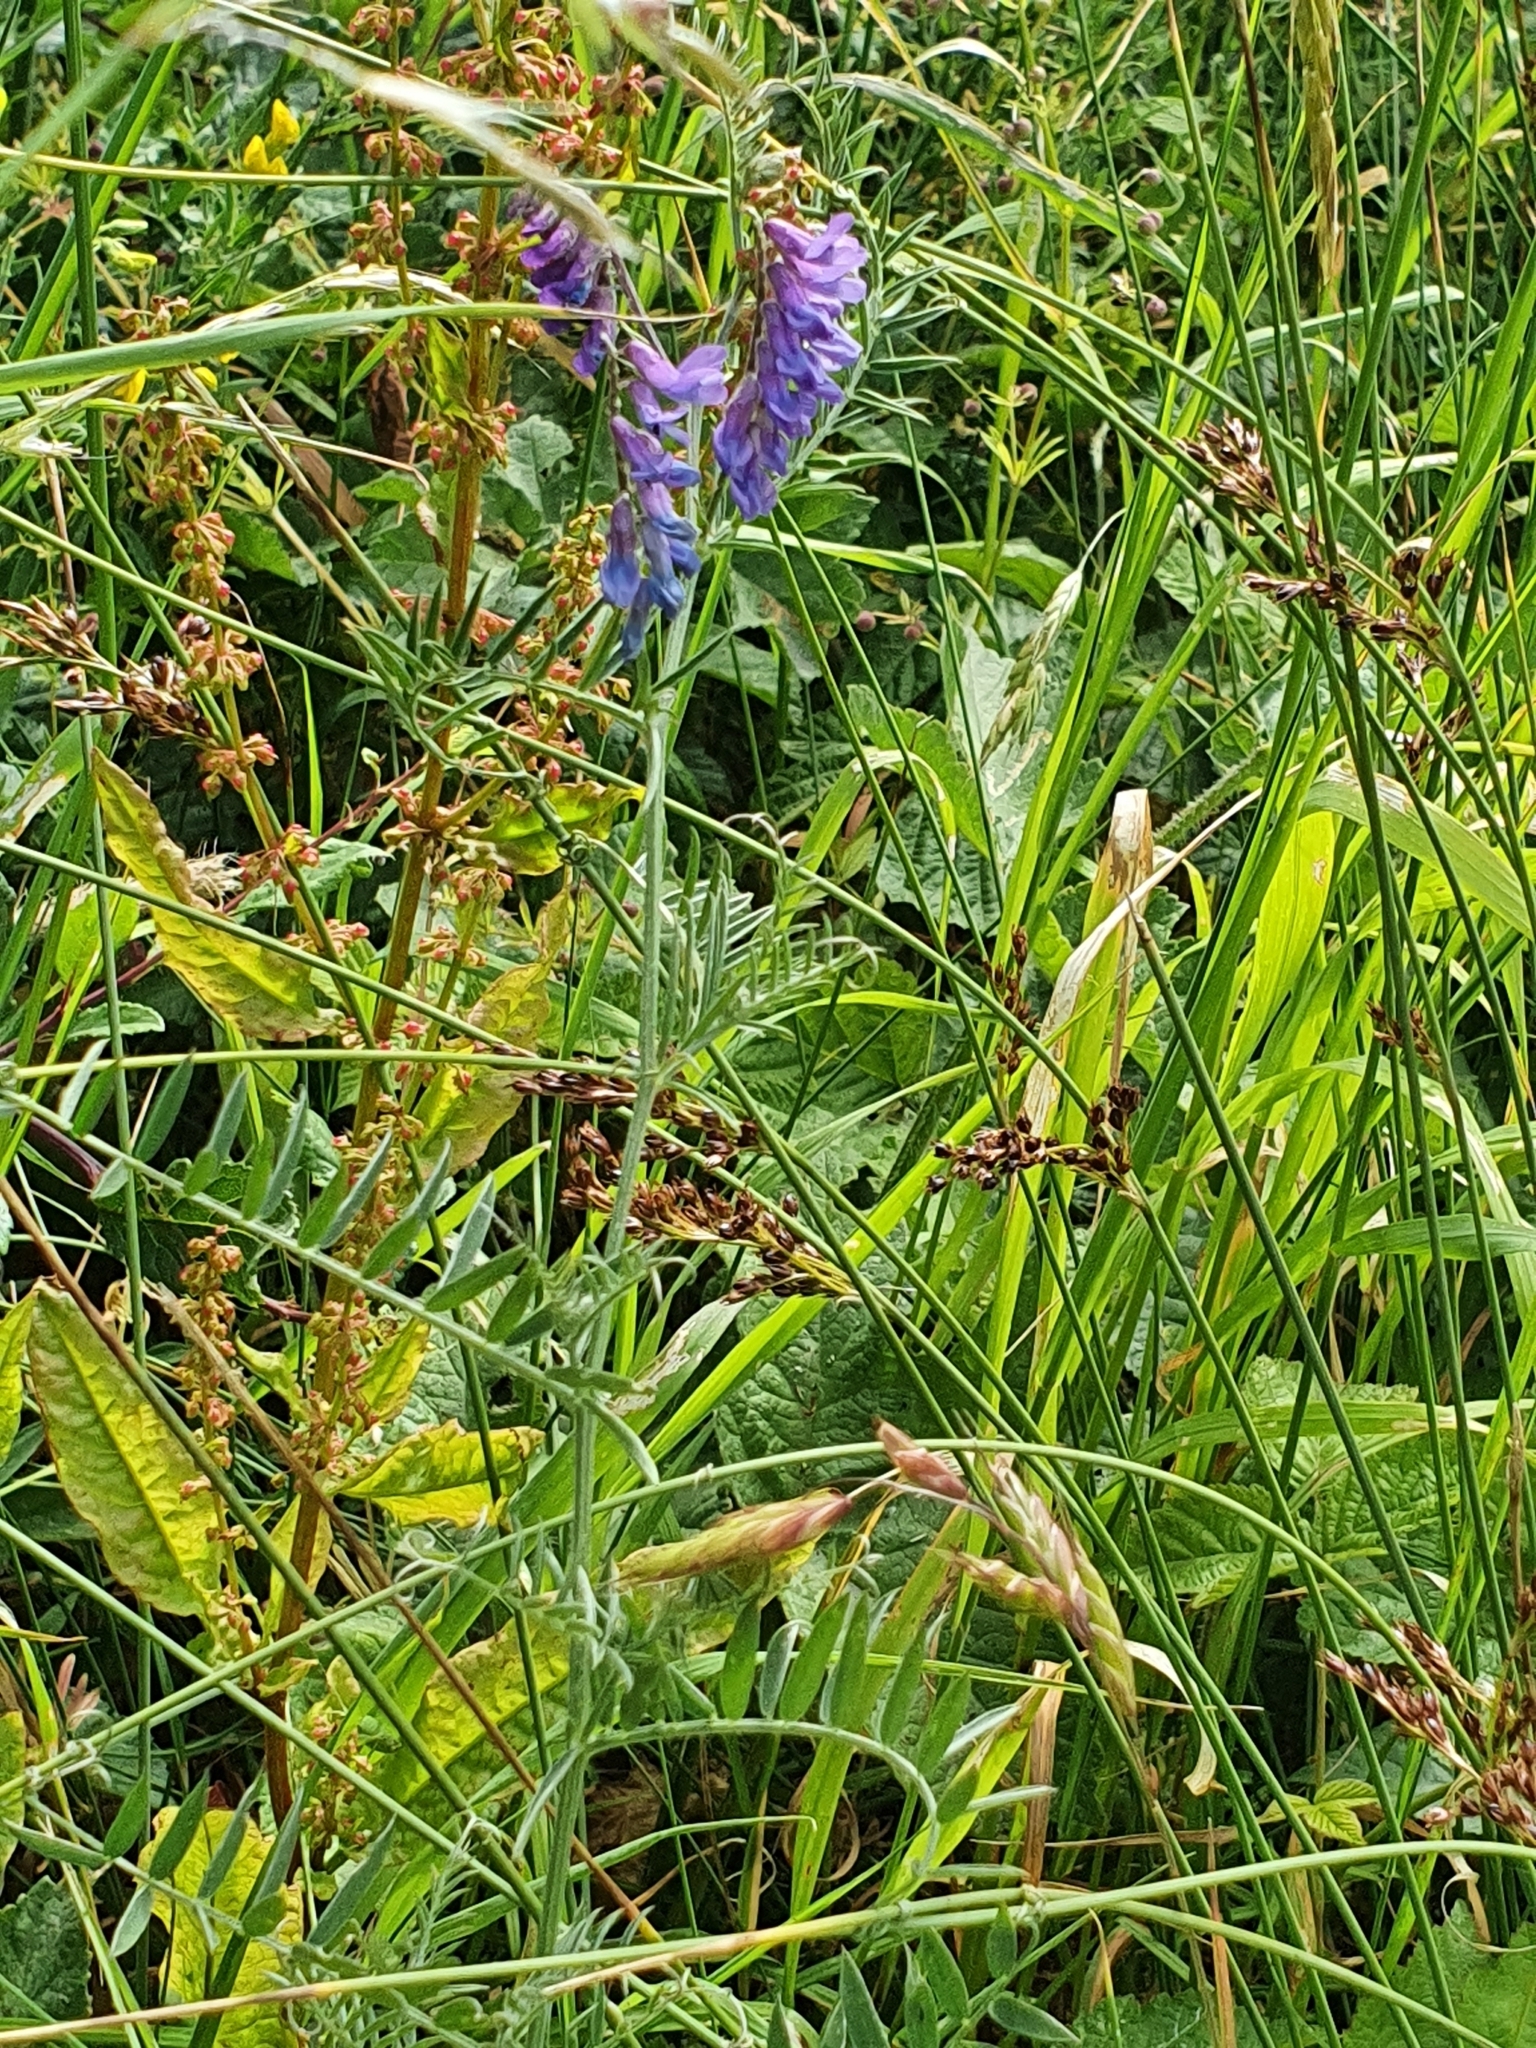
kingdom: Plantae
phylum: Tracheophyta
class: Magnoliopsida
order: Fabales
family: Fabaceae
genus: Vicia
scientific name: Vicia cracca
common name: Bird vetch
